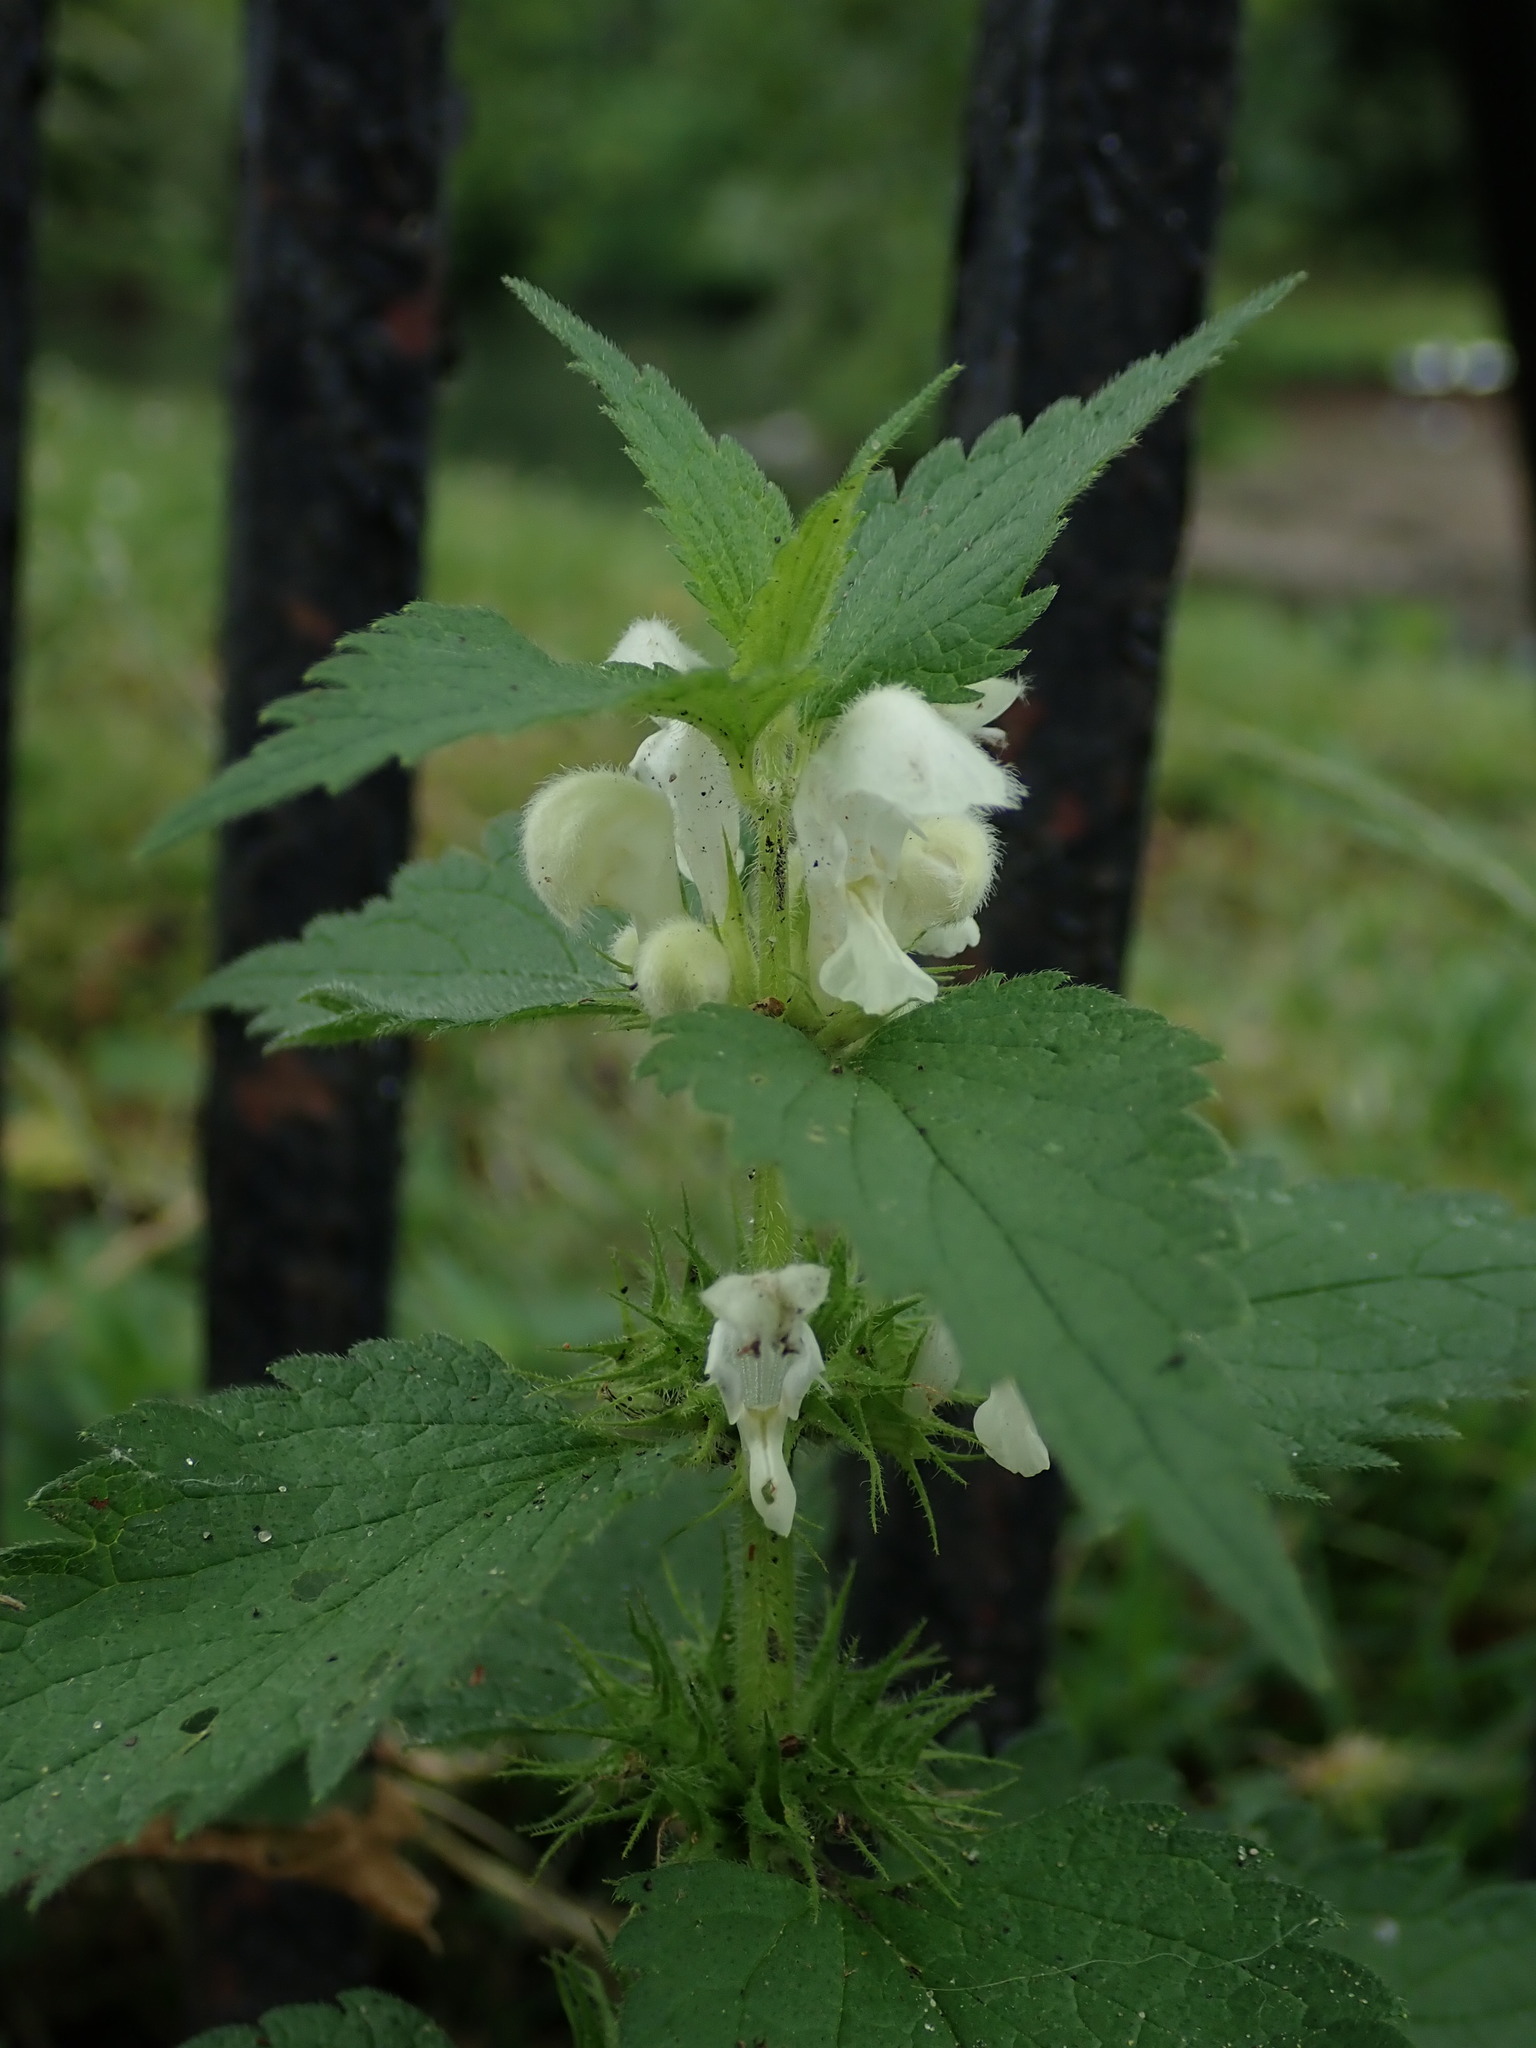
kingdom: Plantae
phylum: Tracheophyta
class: Magnoliopsida
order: Lamiales
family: Lamiaceae
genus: Lamium
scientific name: Lamium album
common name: White dead-nettle
